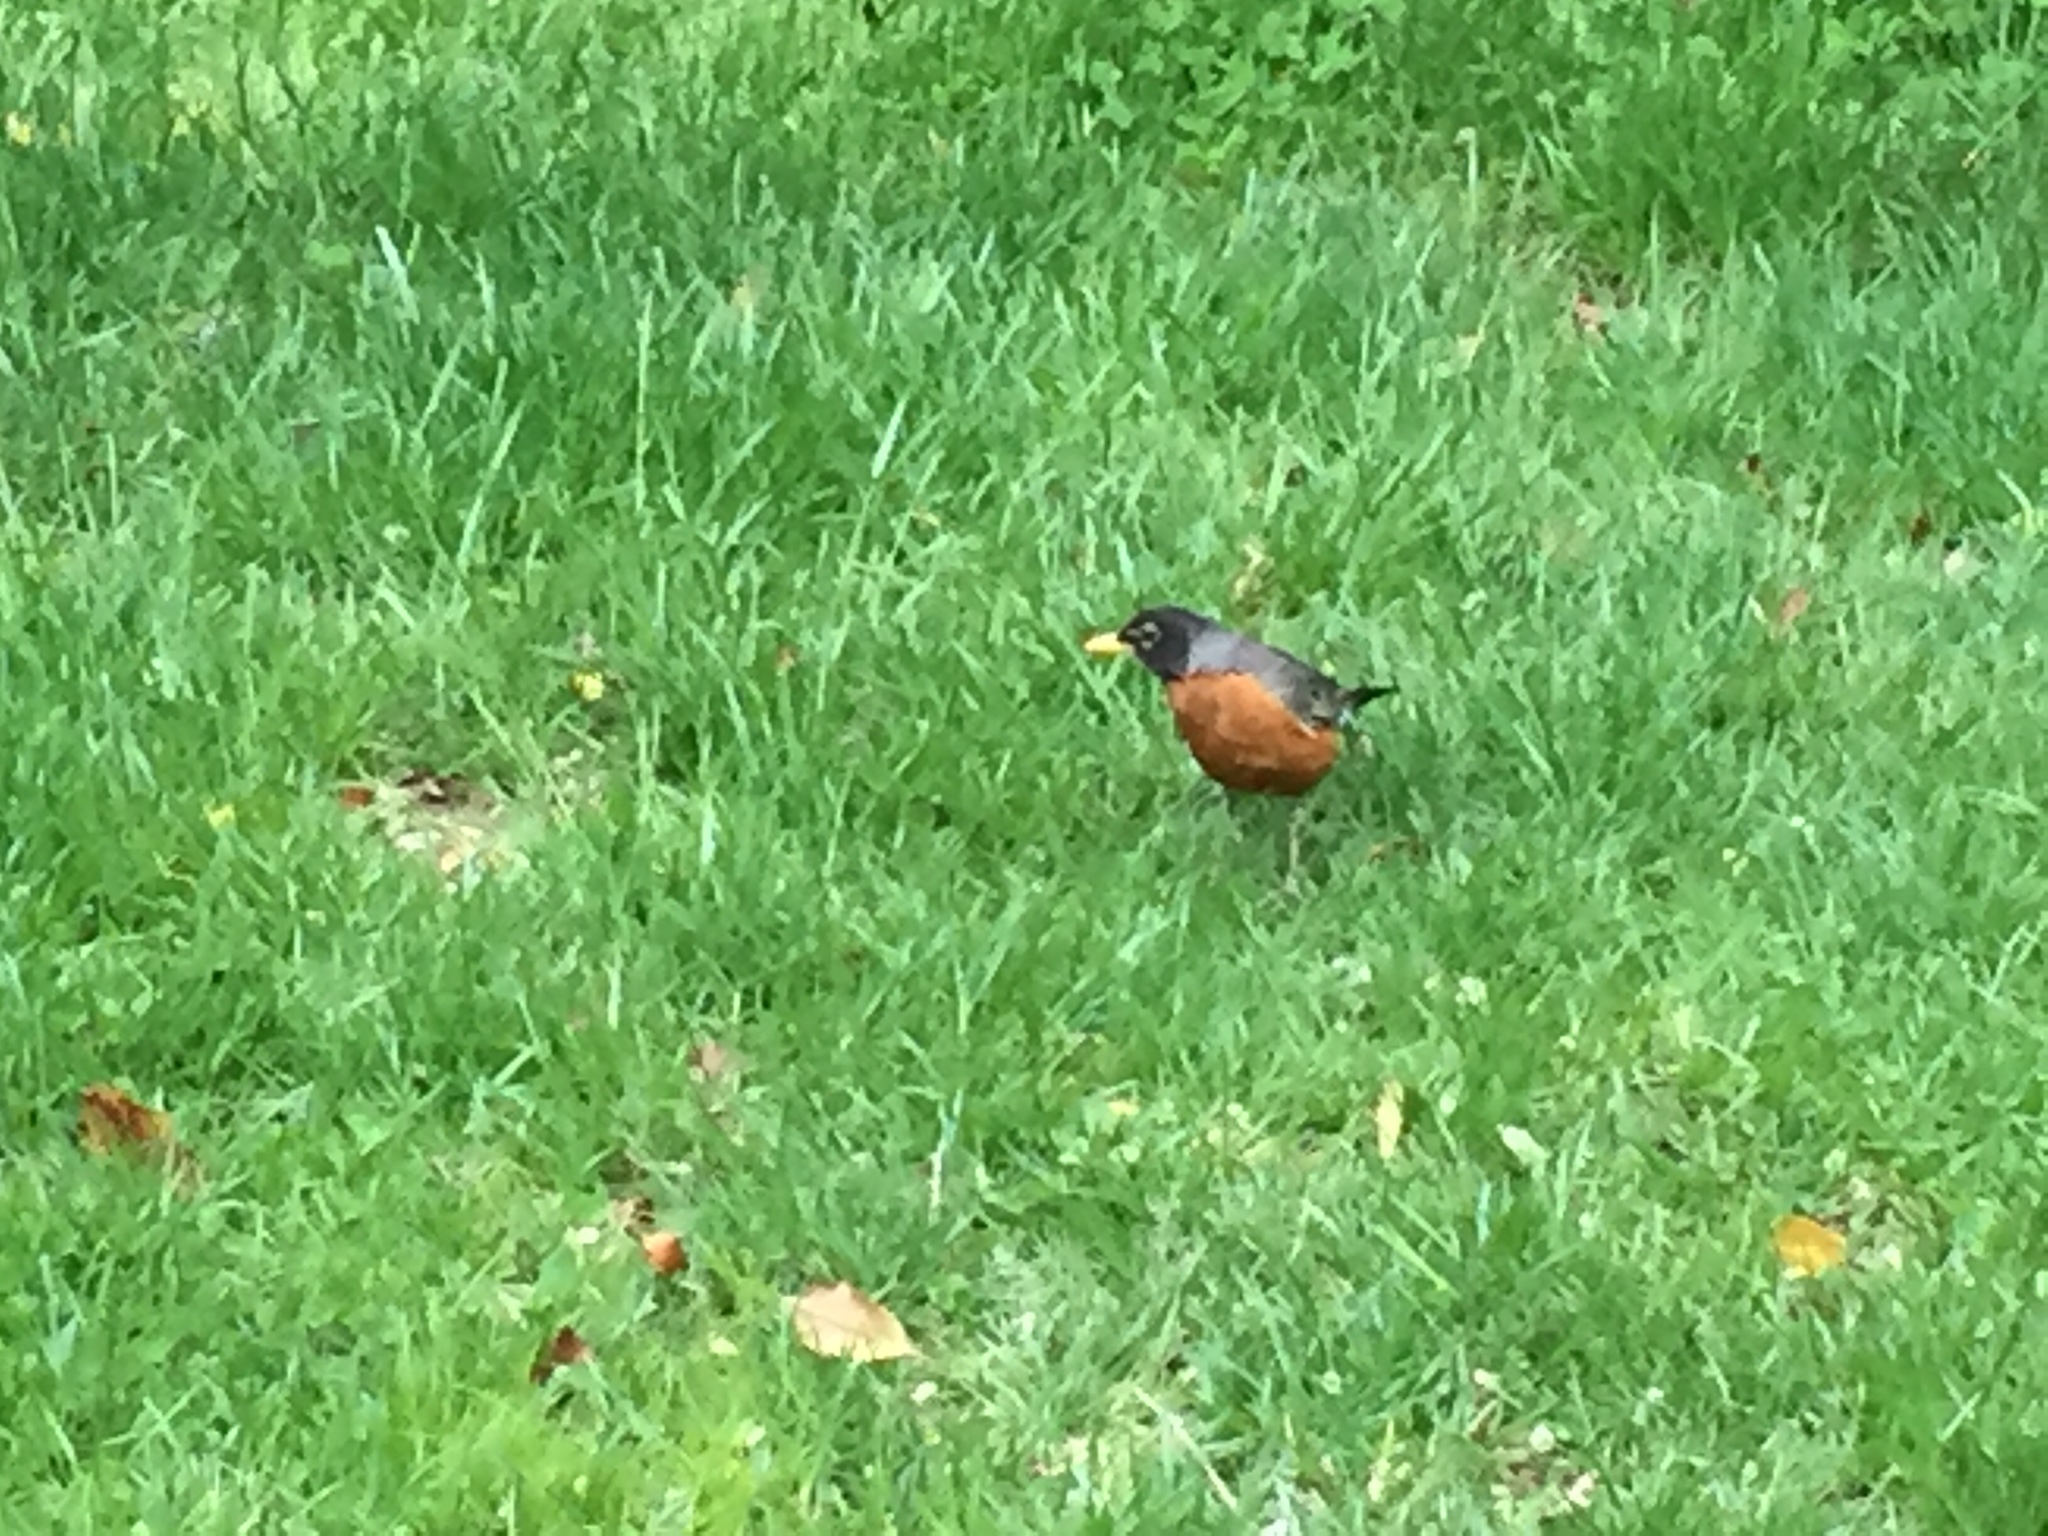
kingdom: Animalia
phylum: Chordata
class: Aves
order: Passeriformes
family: Turdidae
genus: Turdus
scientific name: Turdus migratorius
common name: American robin
